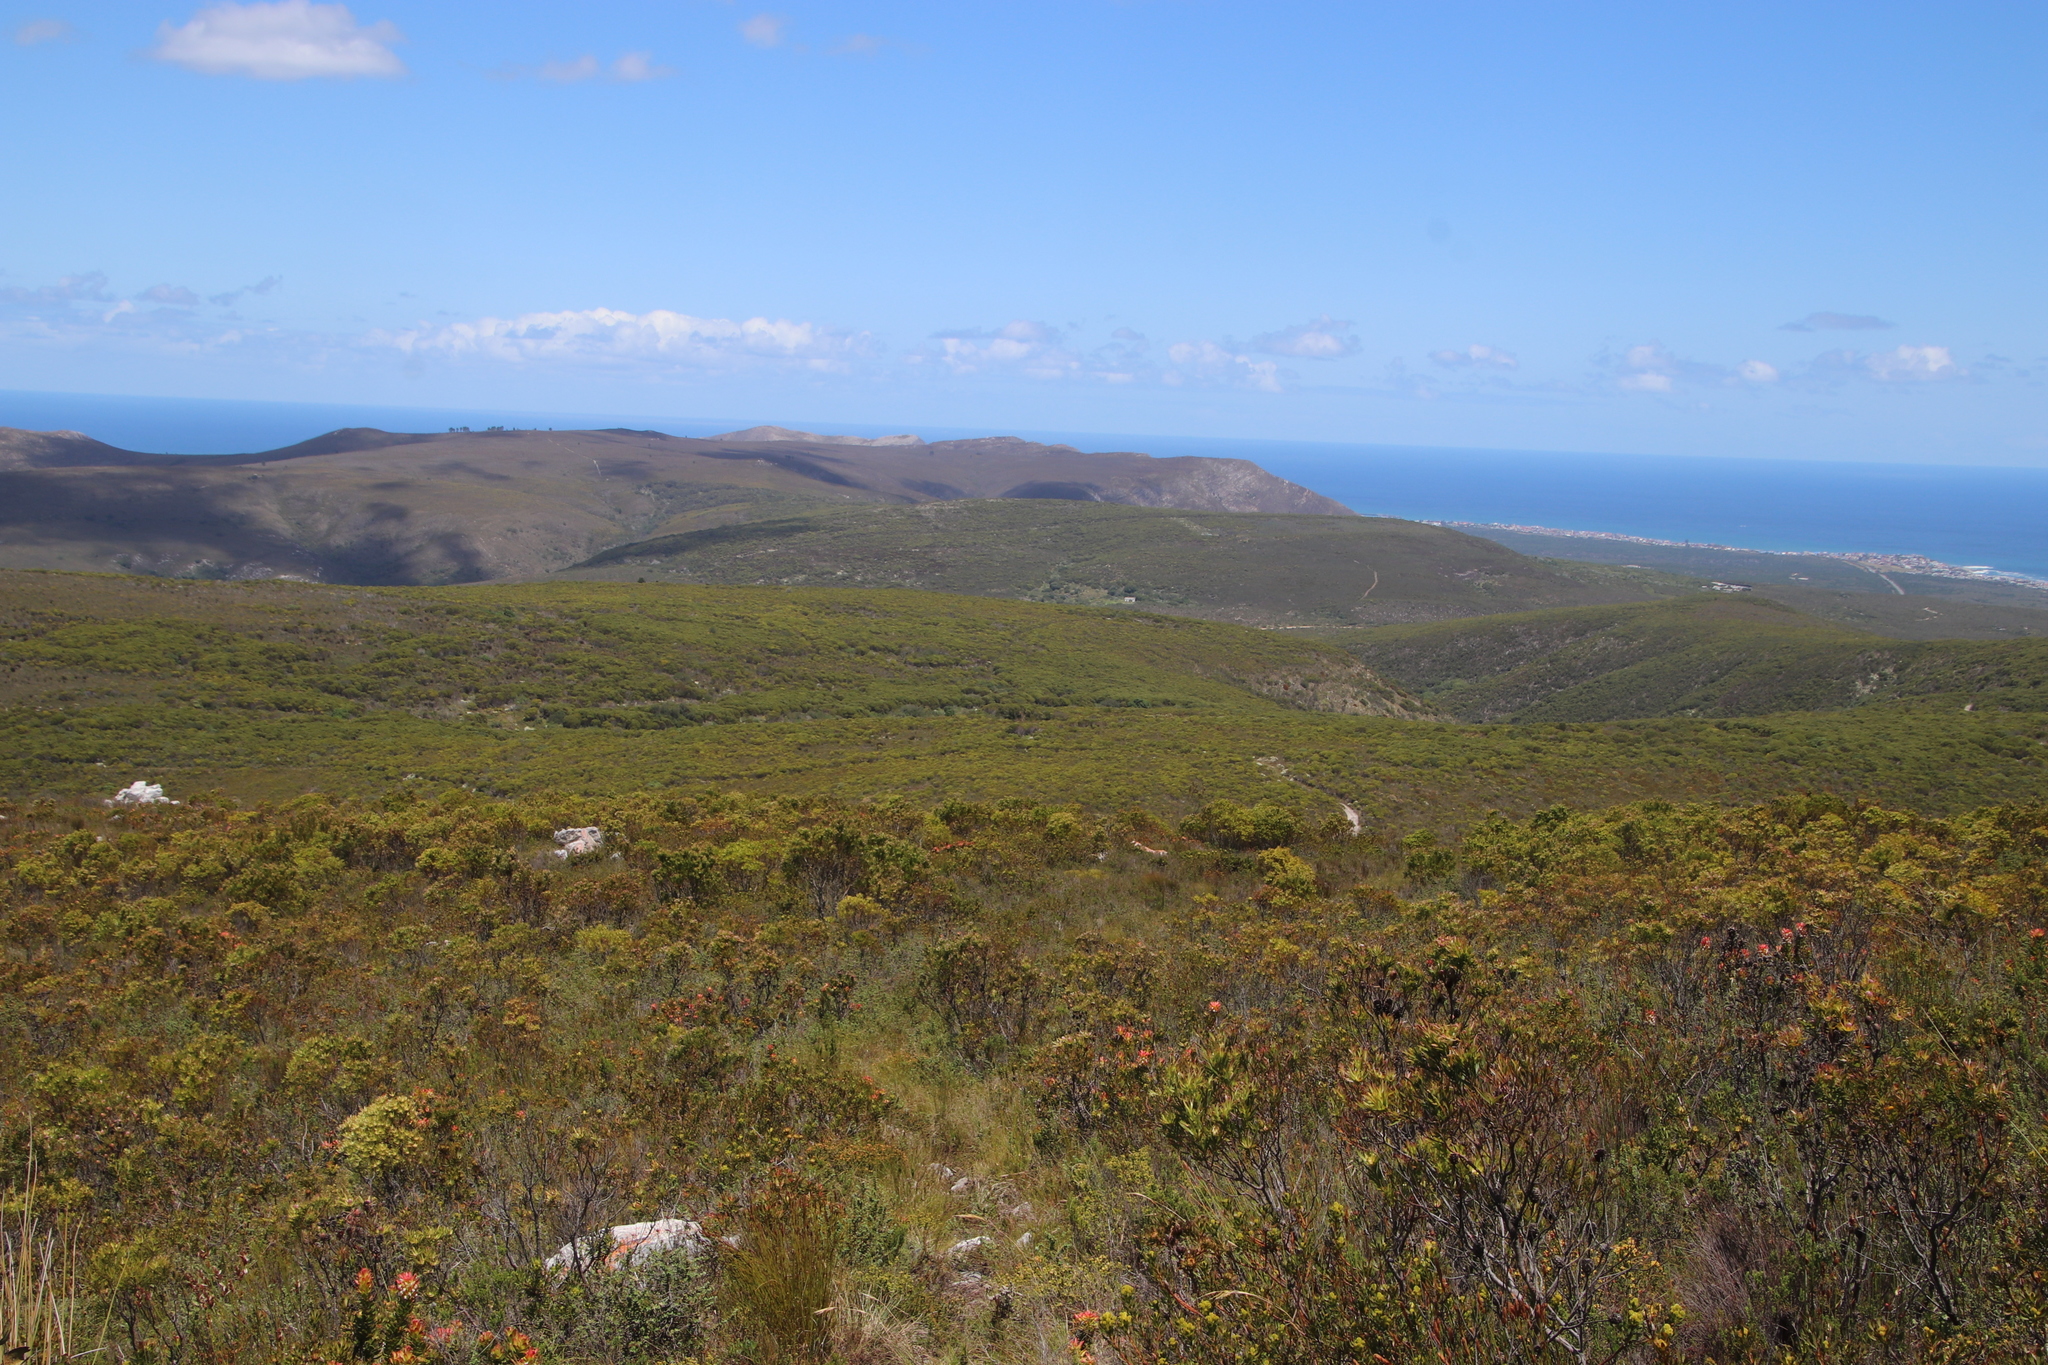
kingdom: Plantae
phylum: Tracheophyta
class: Magnoliopsida
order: Proteales
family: Proteaceae
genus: Leucadendron
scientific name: Leucadendron xanthoconus
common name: Sickle-leaf conebush
